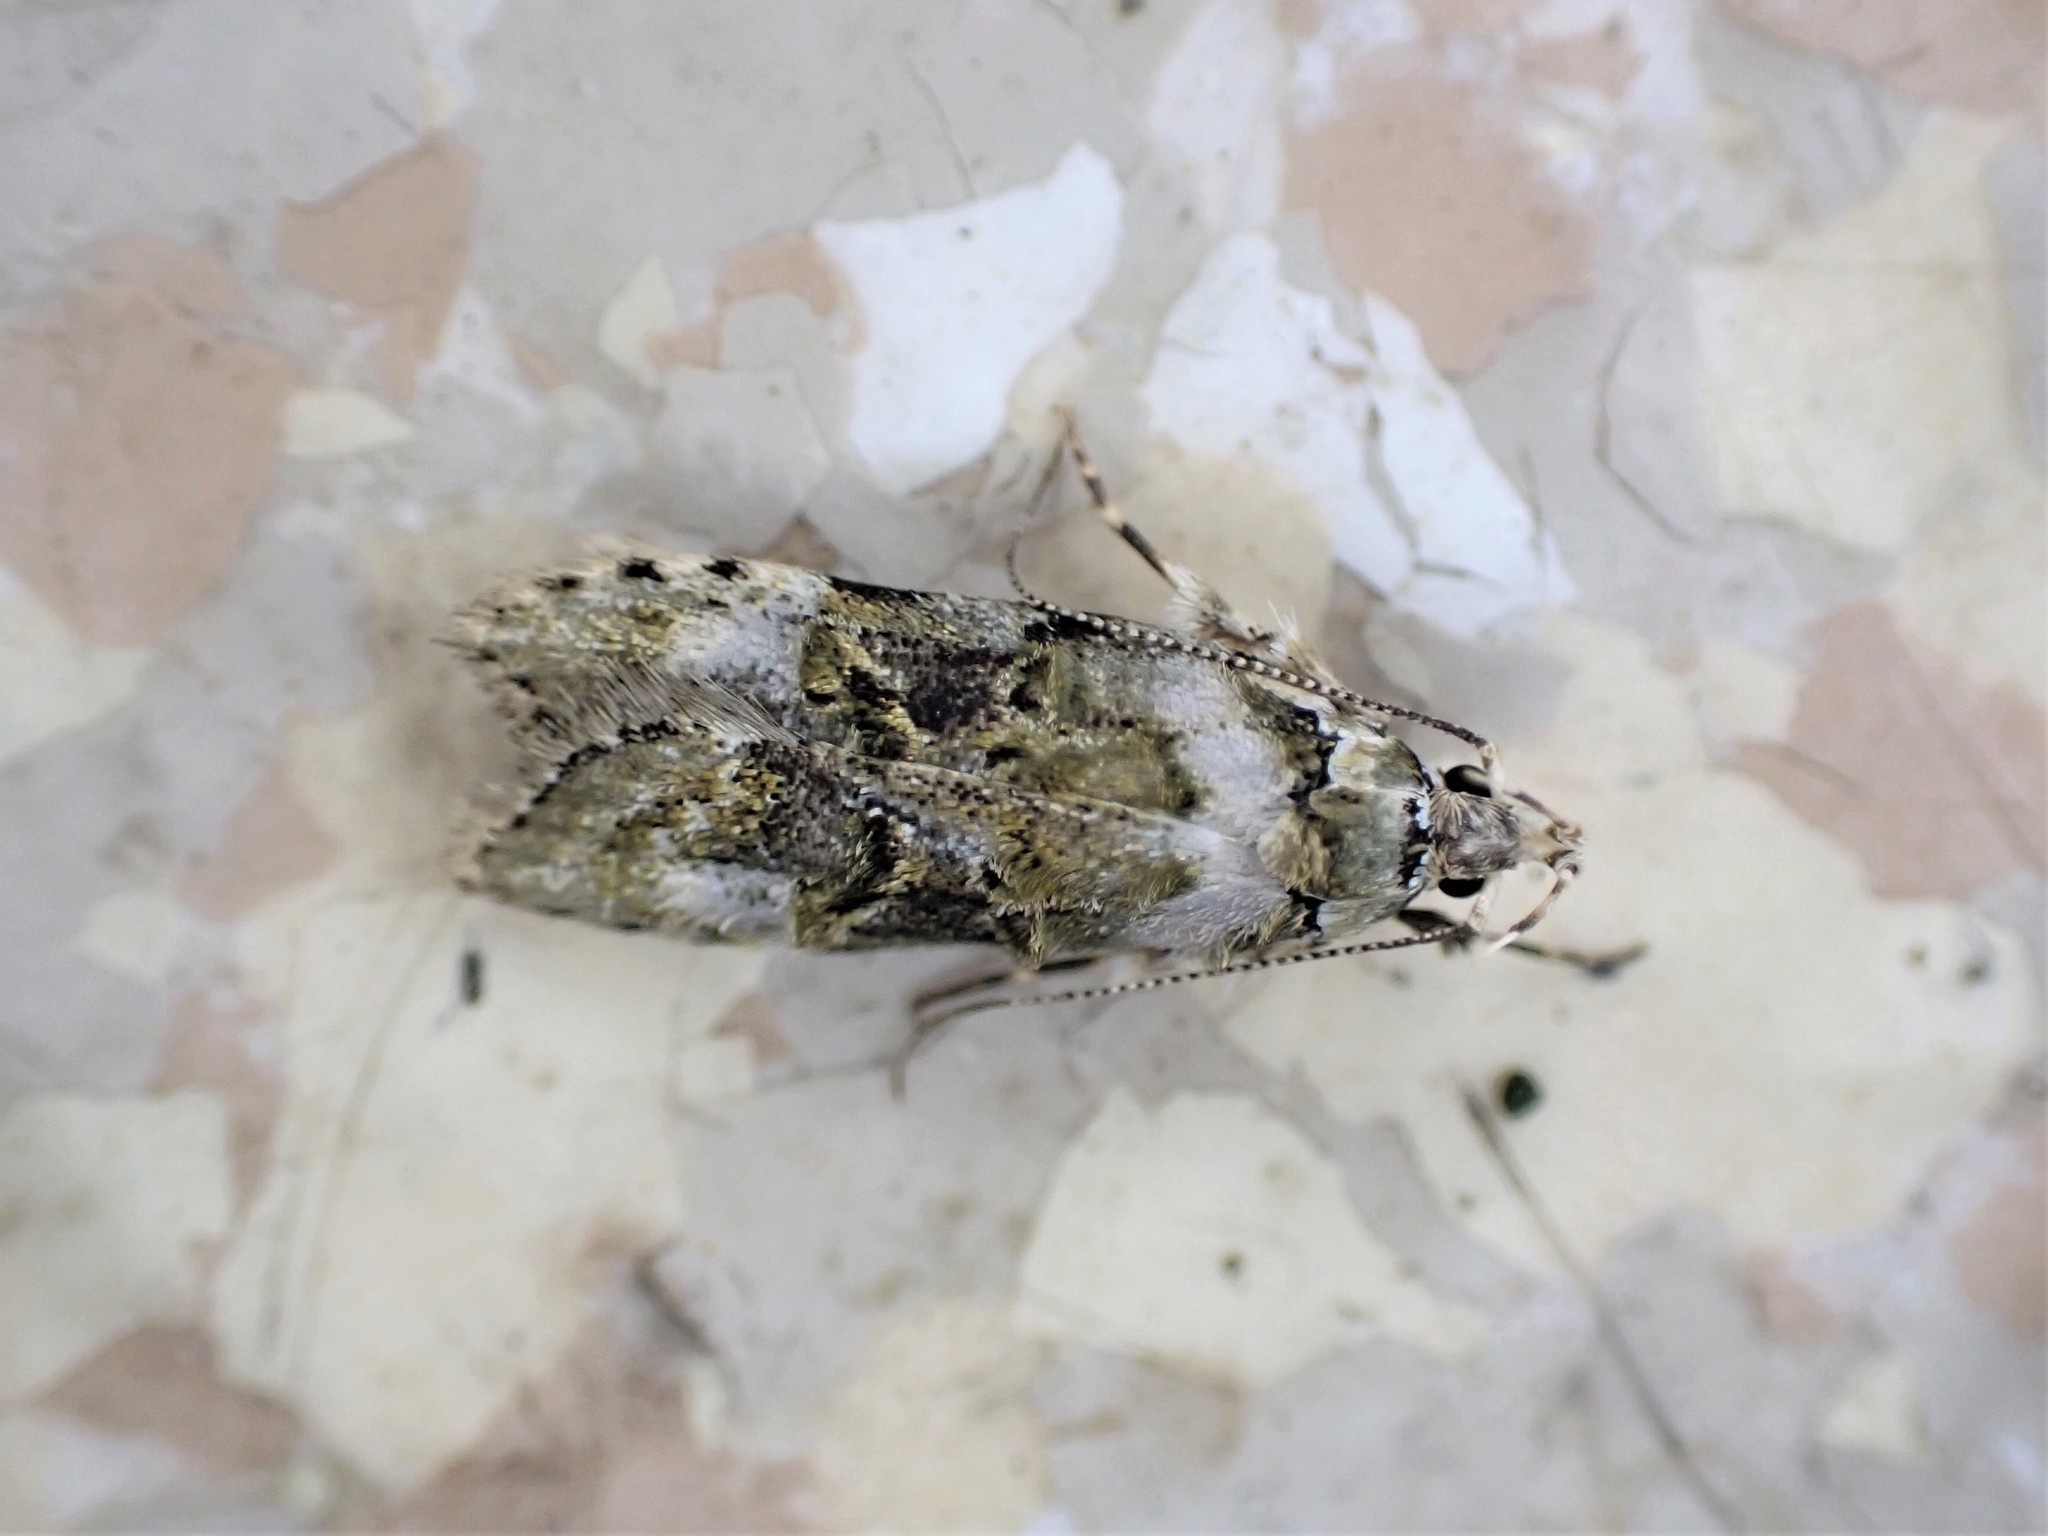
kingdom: Animalia
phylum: Arthropoda
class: Insecta
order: Lepidoptera
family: Oecophoridae
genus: Izatha
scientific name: Izatha prasophyta
